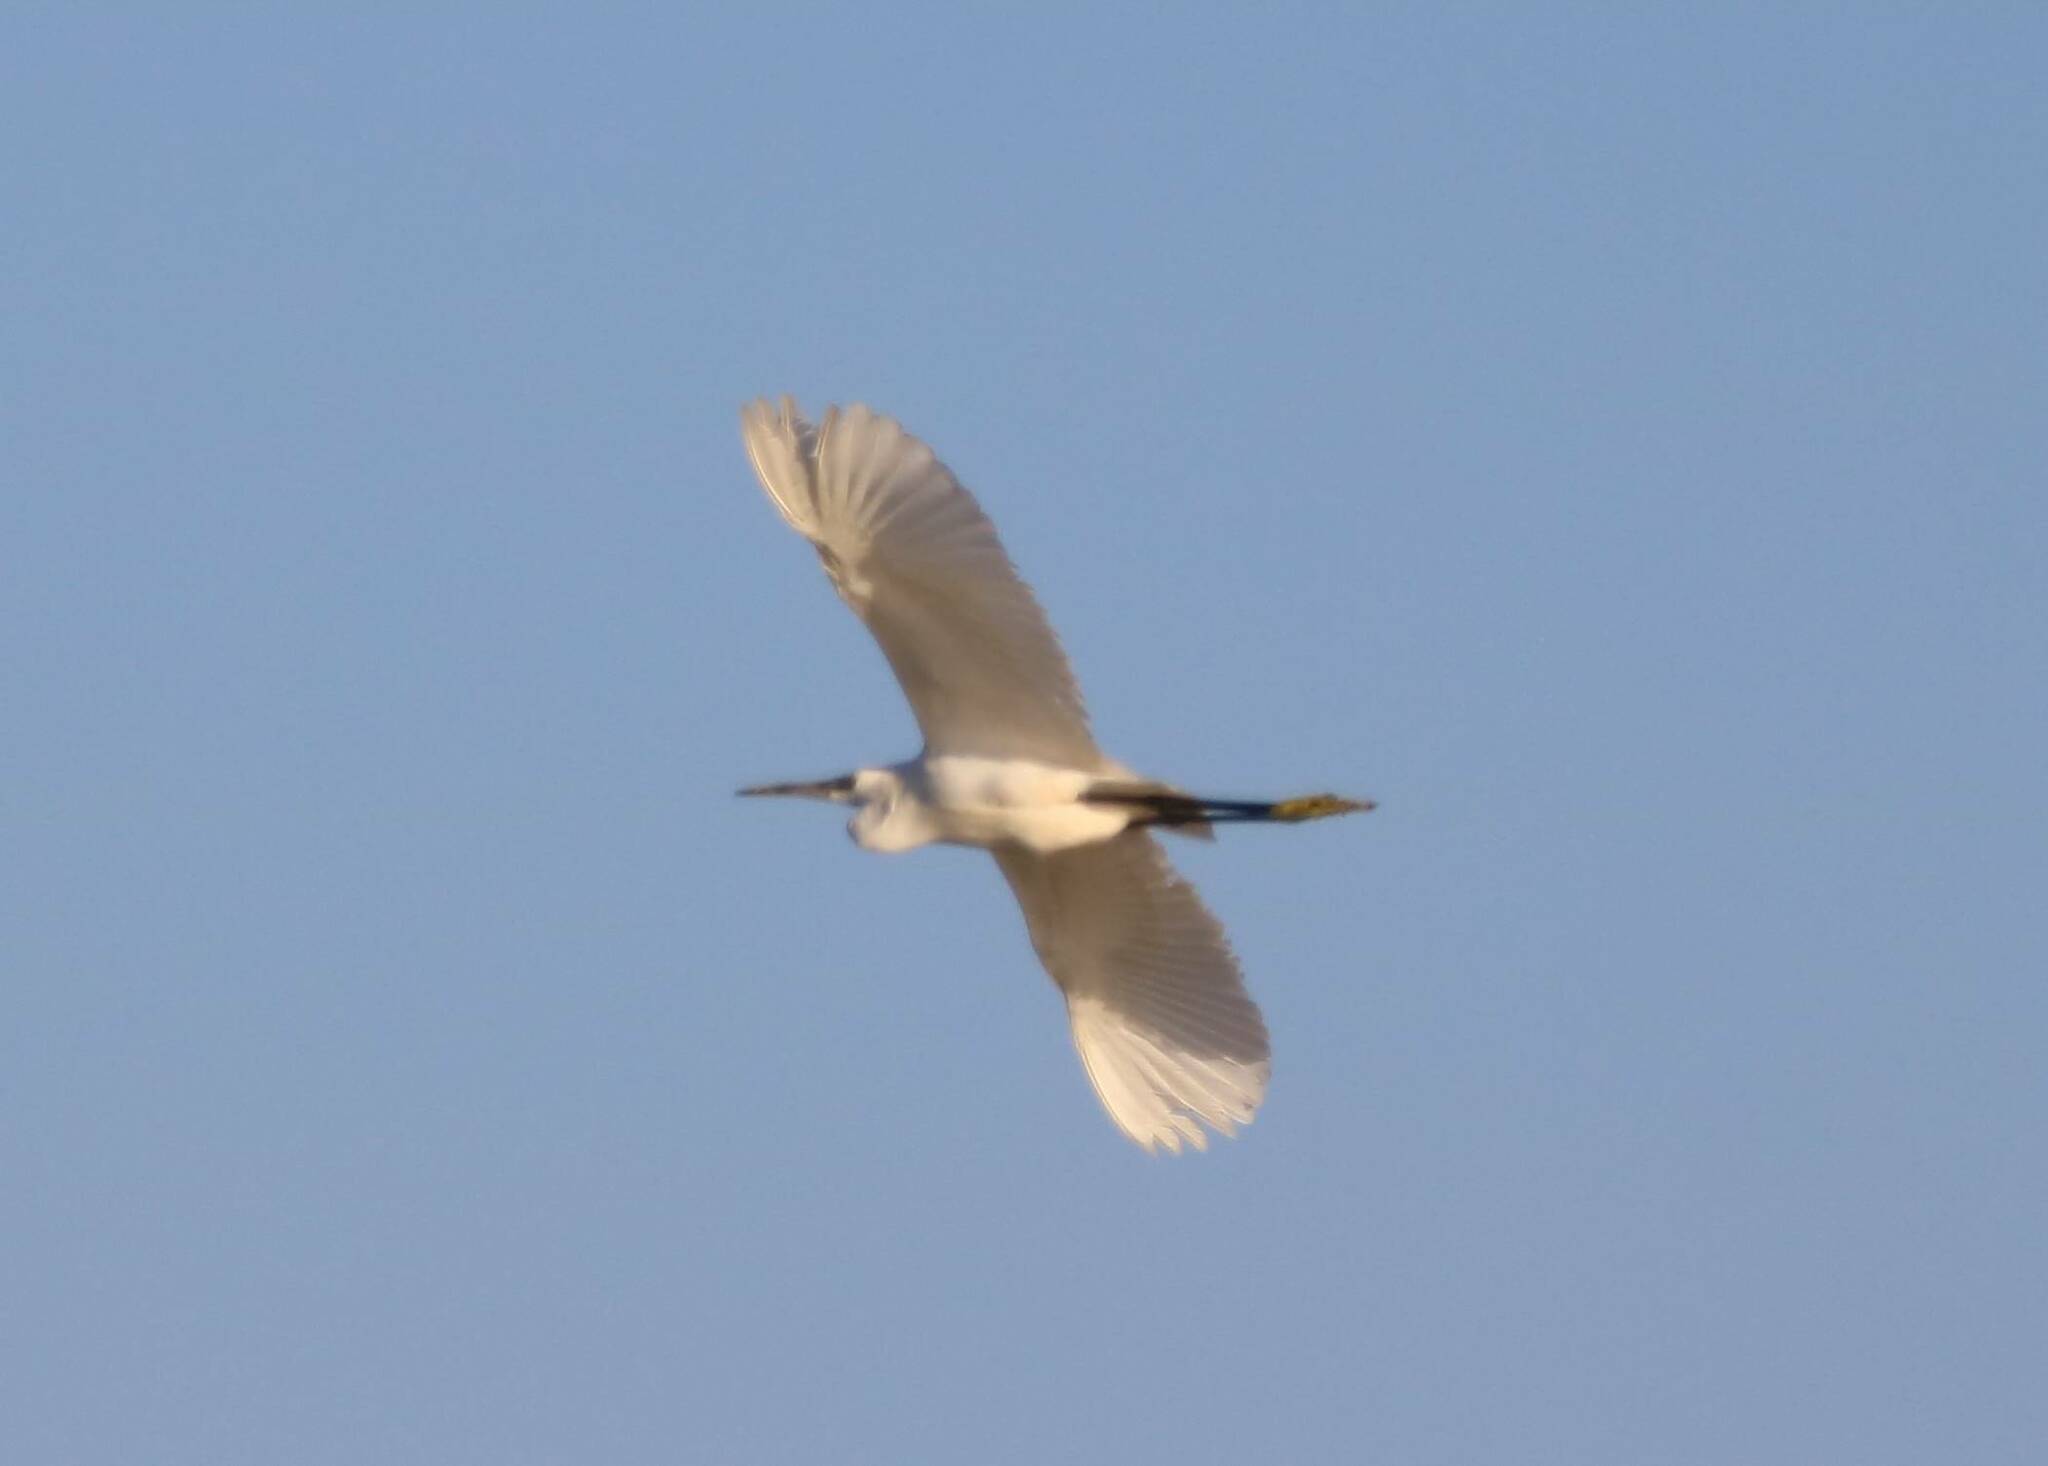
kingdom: Animalia
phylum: Chordata
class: Aves
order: Pelecaniformes
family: Ardeidae
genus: Egretta
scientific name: Egretta garzetta
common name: Little egret
